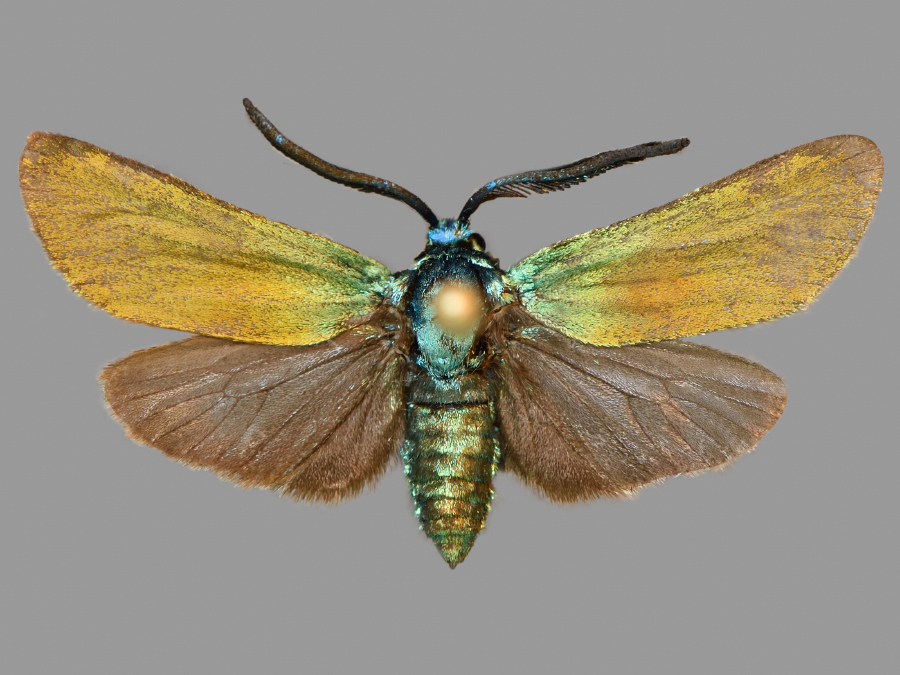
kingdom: Animalia
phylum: Arthropoda
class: Insecta
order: Lepidoptera
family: Zygaenidae
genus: Jordanita
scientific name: Jordanita chloros
